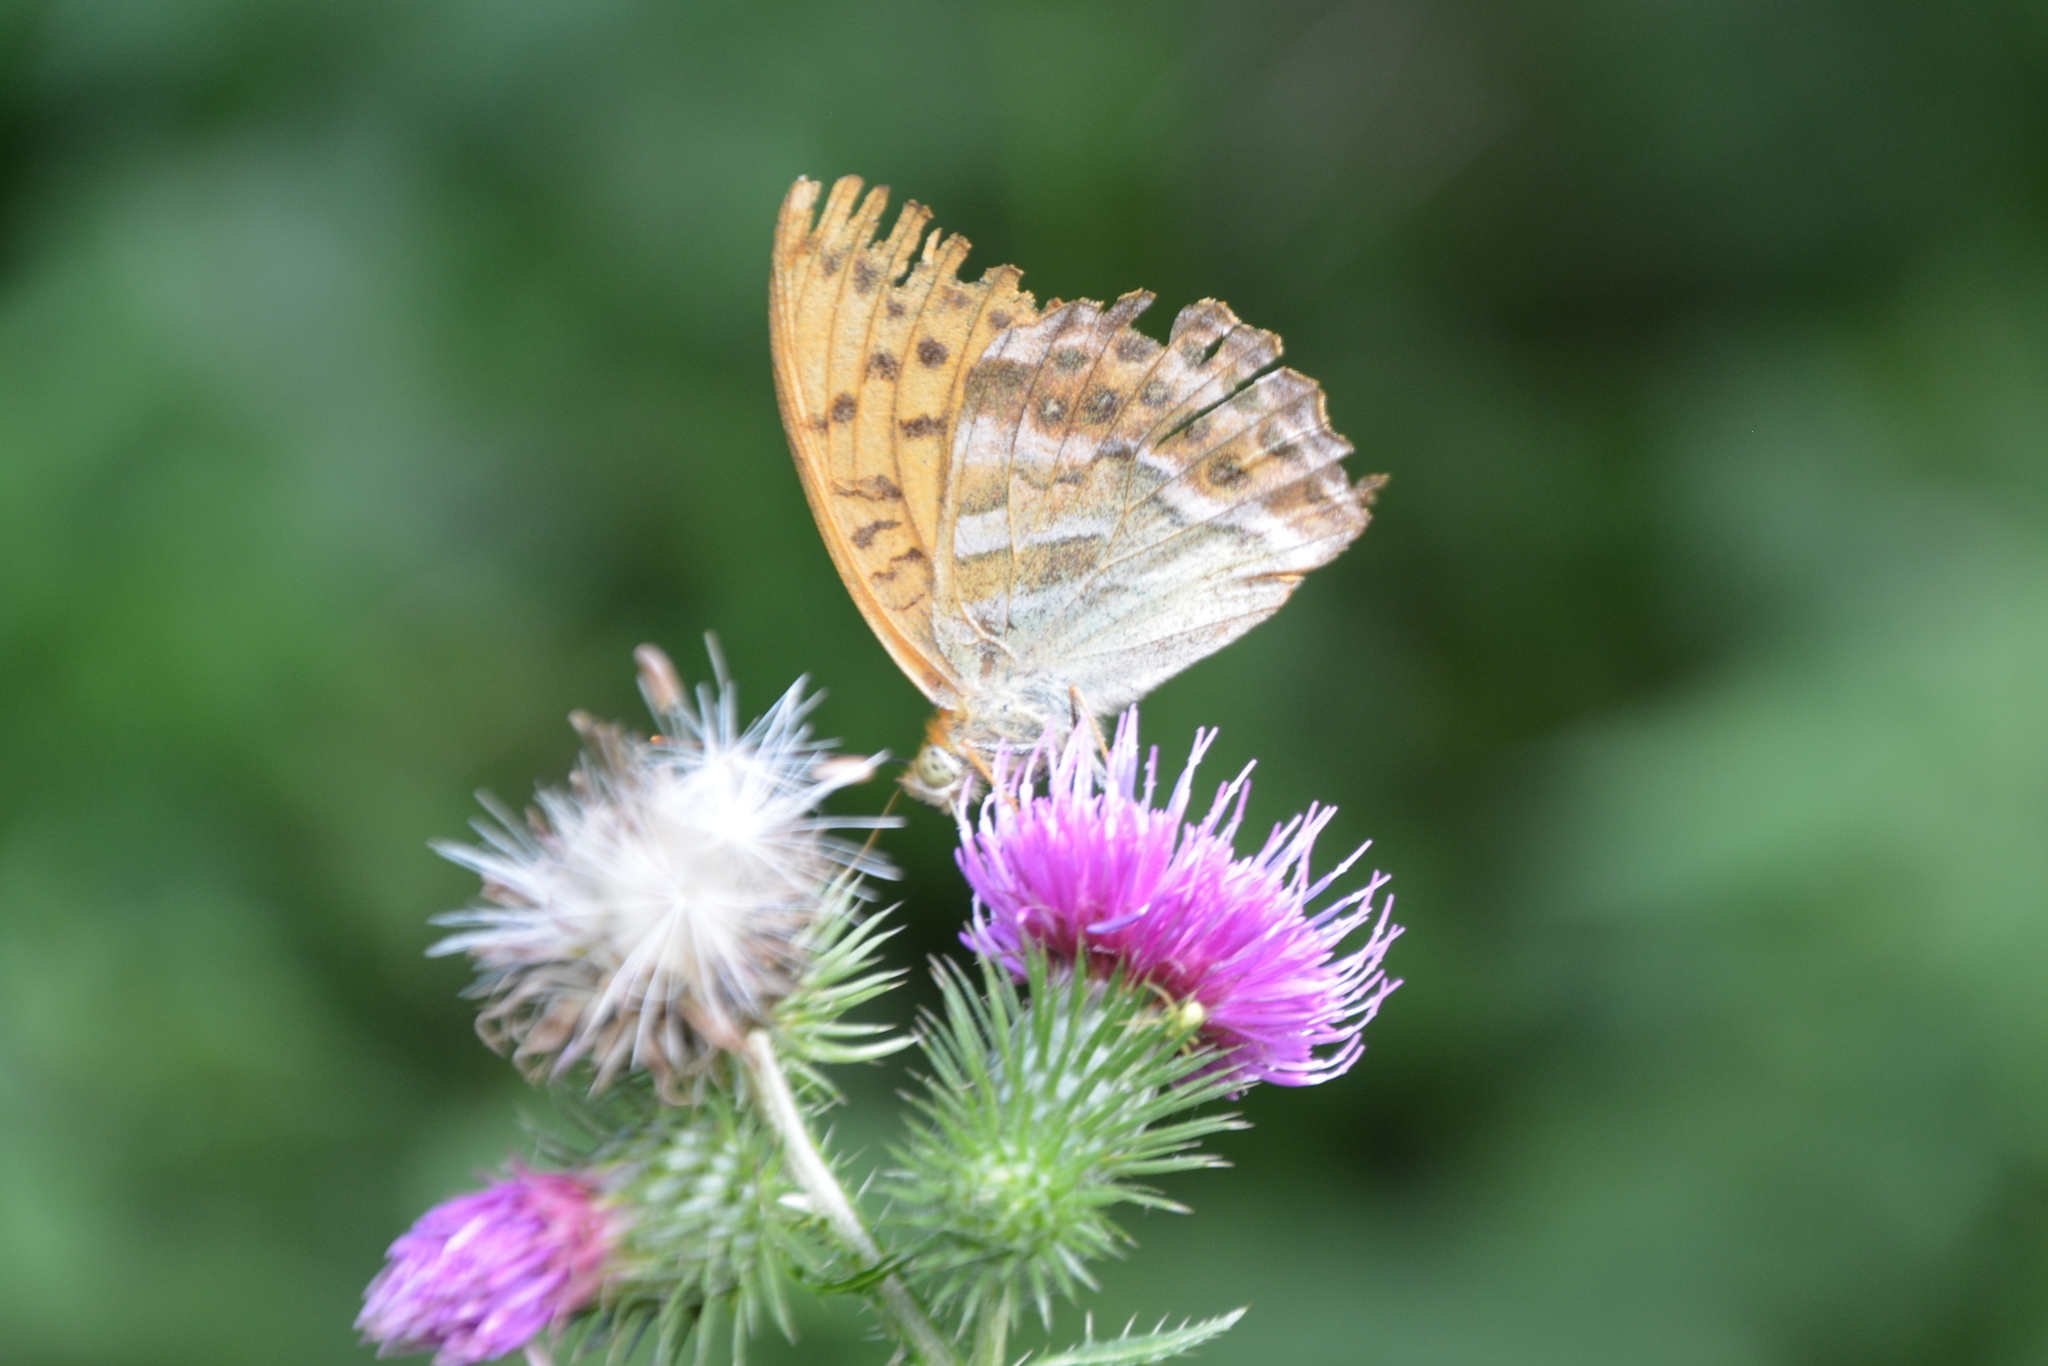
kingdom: Animalia
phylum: Arthropoda
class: Insecta
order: Lepidoptera
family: Nymphalidae
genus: Argynnis
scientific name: Argynnis paphia
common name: Silver-washed fritillary
